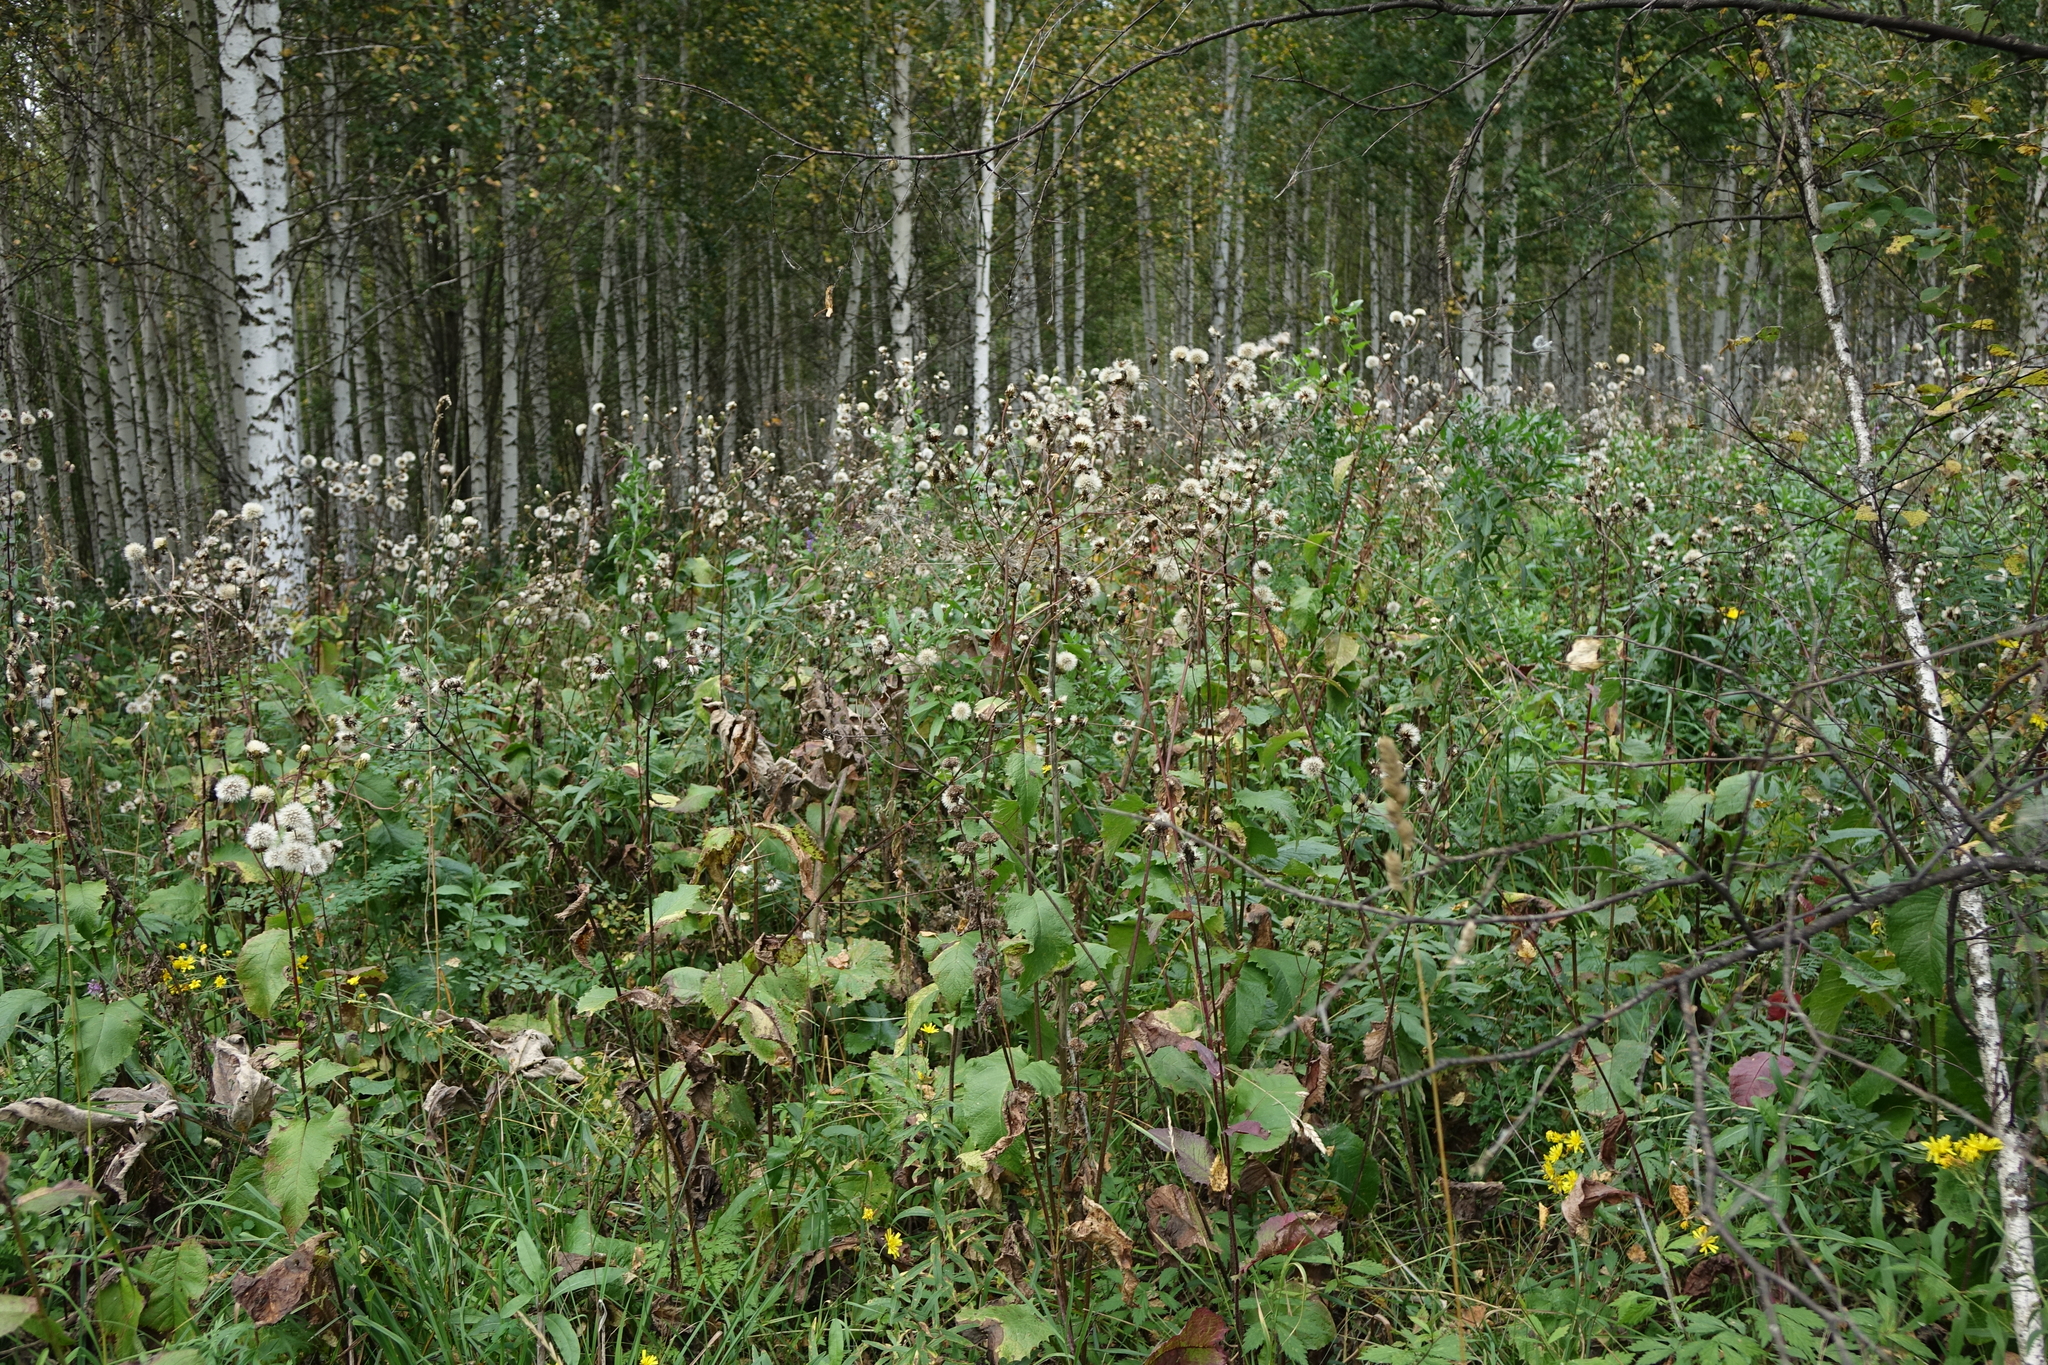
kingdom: Plantae
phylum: Tracheophyta
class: Magnoliopsida
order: Asterales
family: Asteraceae
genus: Crepis
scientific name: Crepis sibirica
